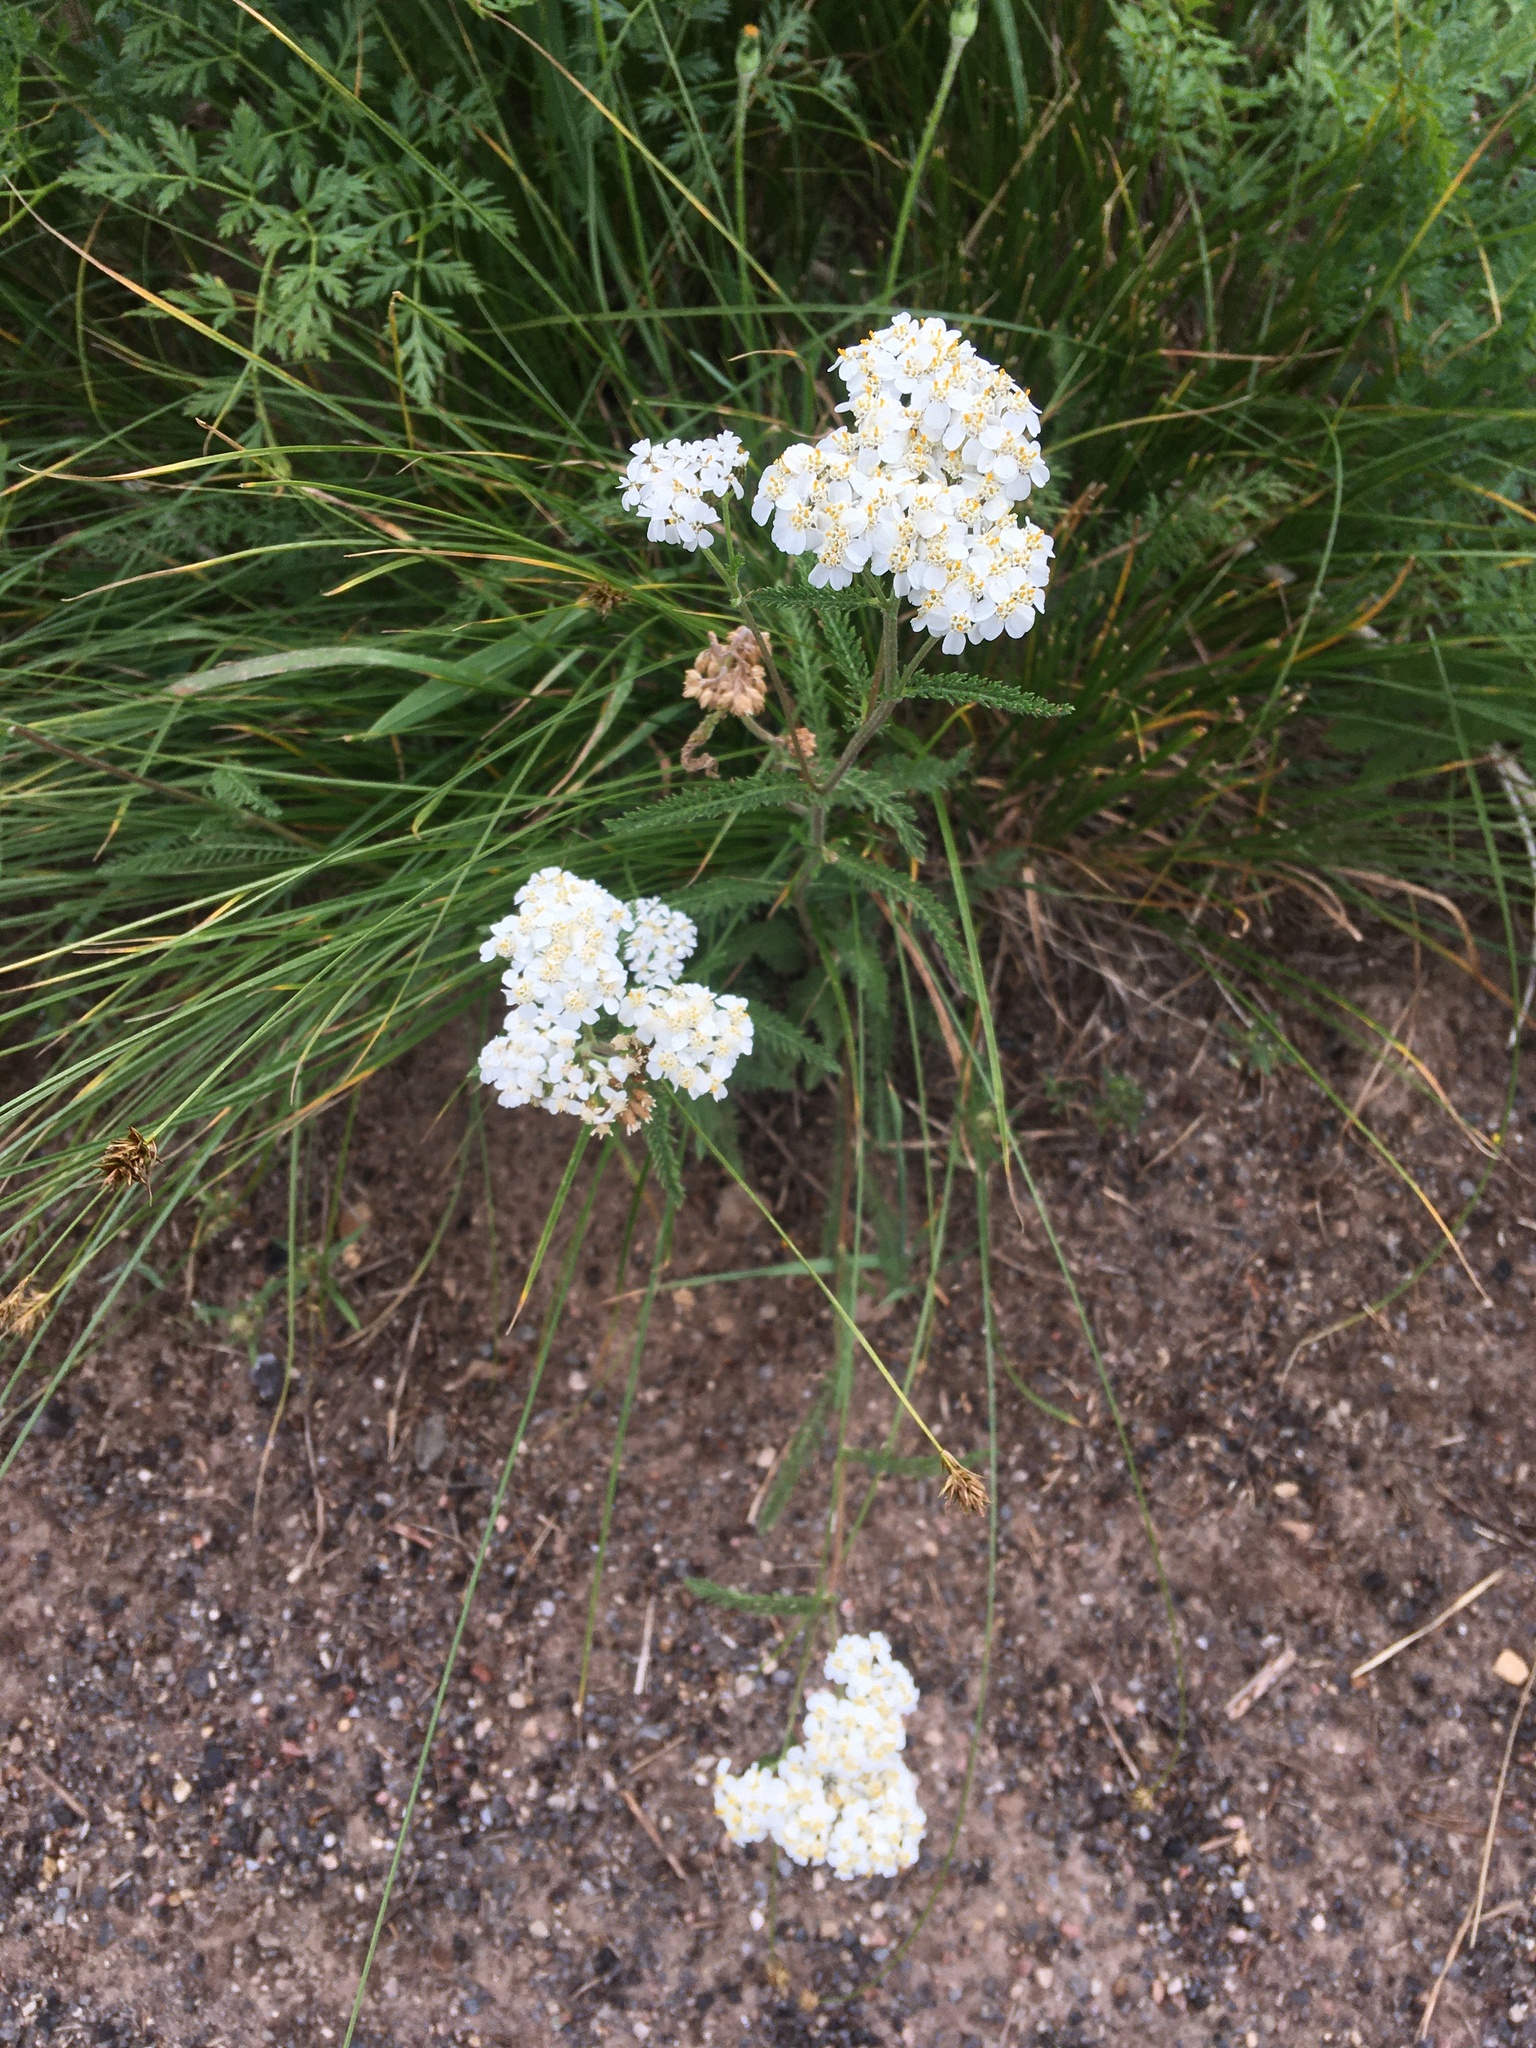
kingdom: Plantae
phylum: Tracheophyta
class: Magnoliopsida
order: Asterales
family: Asteraceae
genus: Achillea
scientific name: Achillea millefolium
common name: Yarrow
